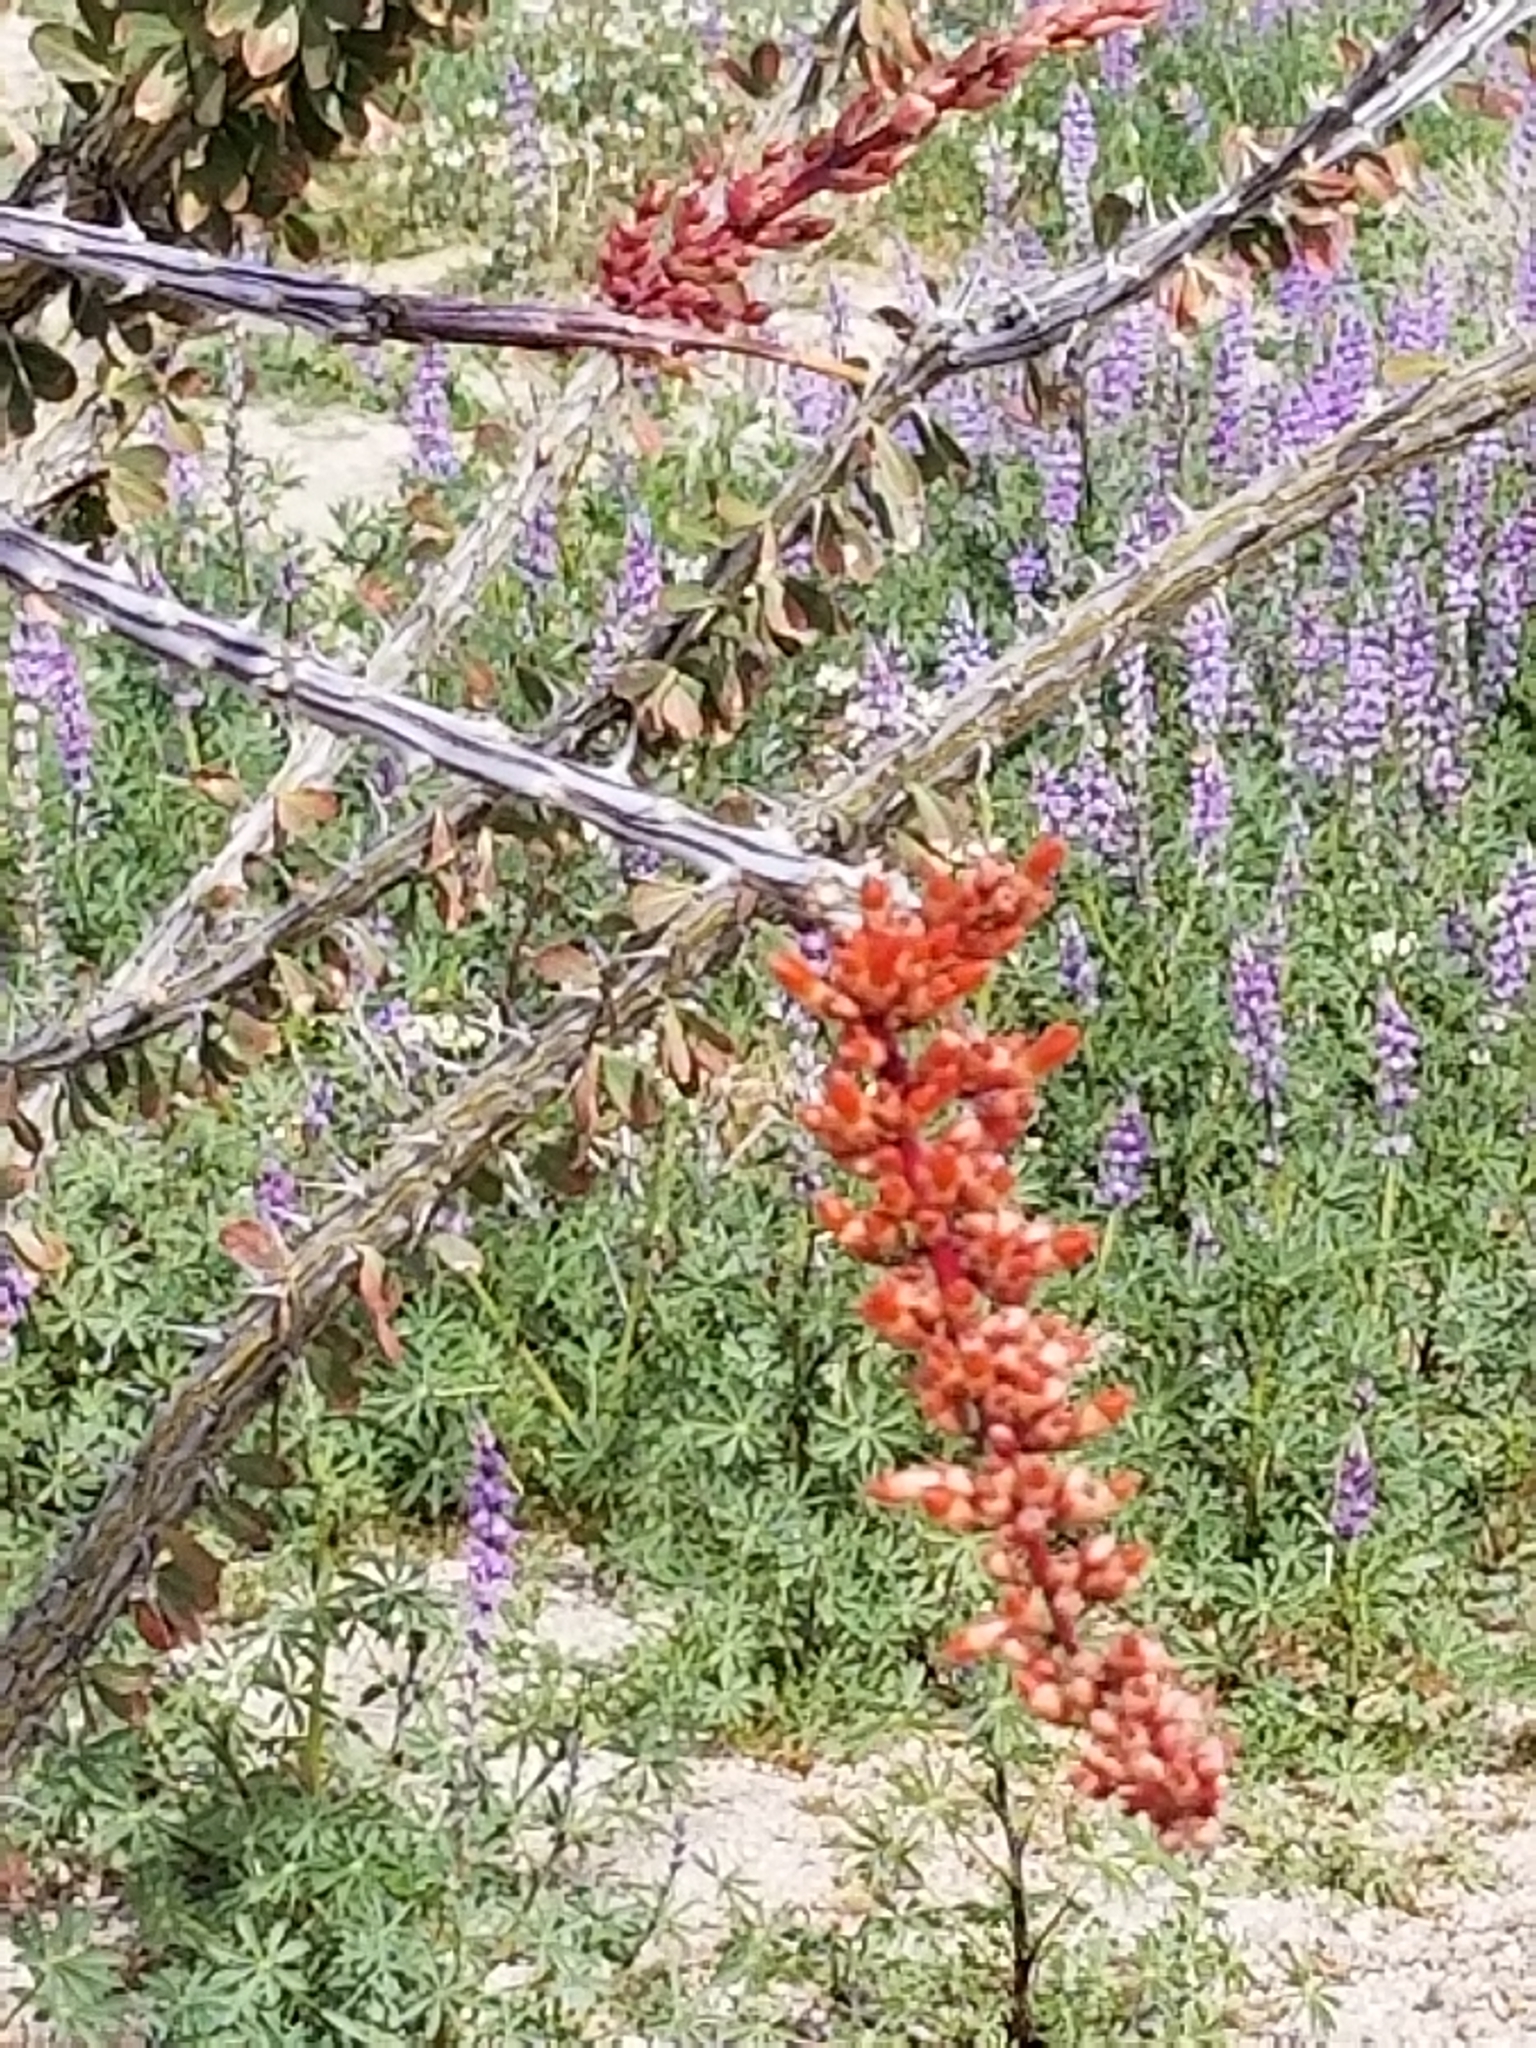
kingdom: Plantae
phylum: Tracheophyta
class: Magnoliopsida
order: Ericales
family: Fouquieriaceae
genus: Fouquieria
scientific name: Fouquieria splendens
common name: Vine-cactus
